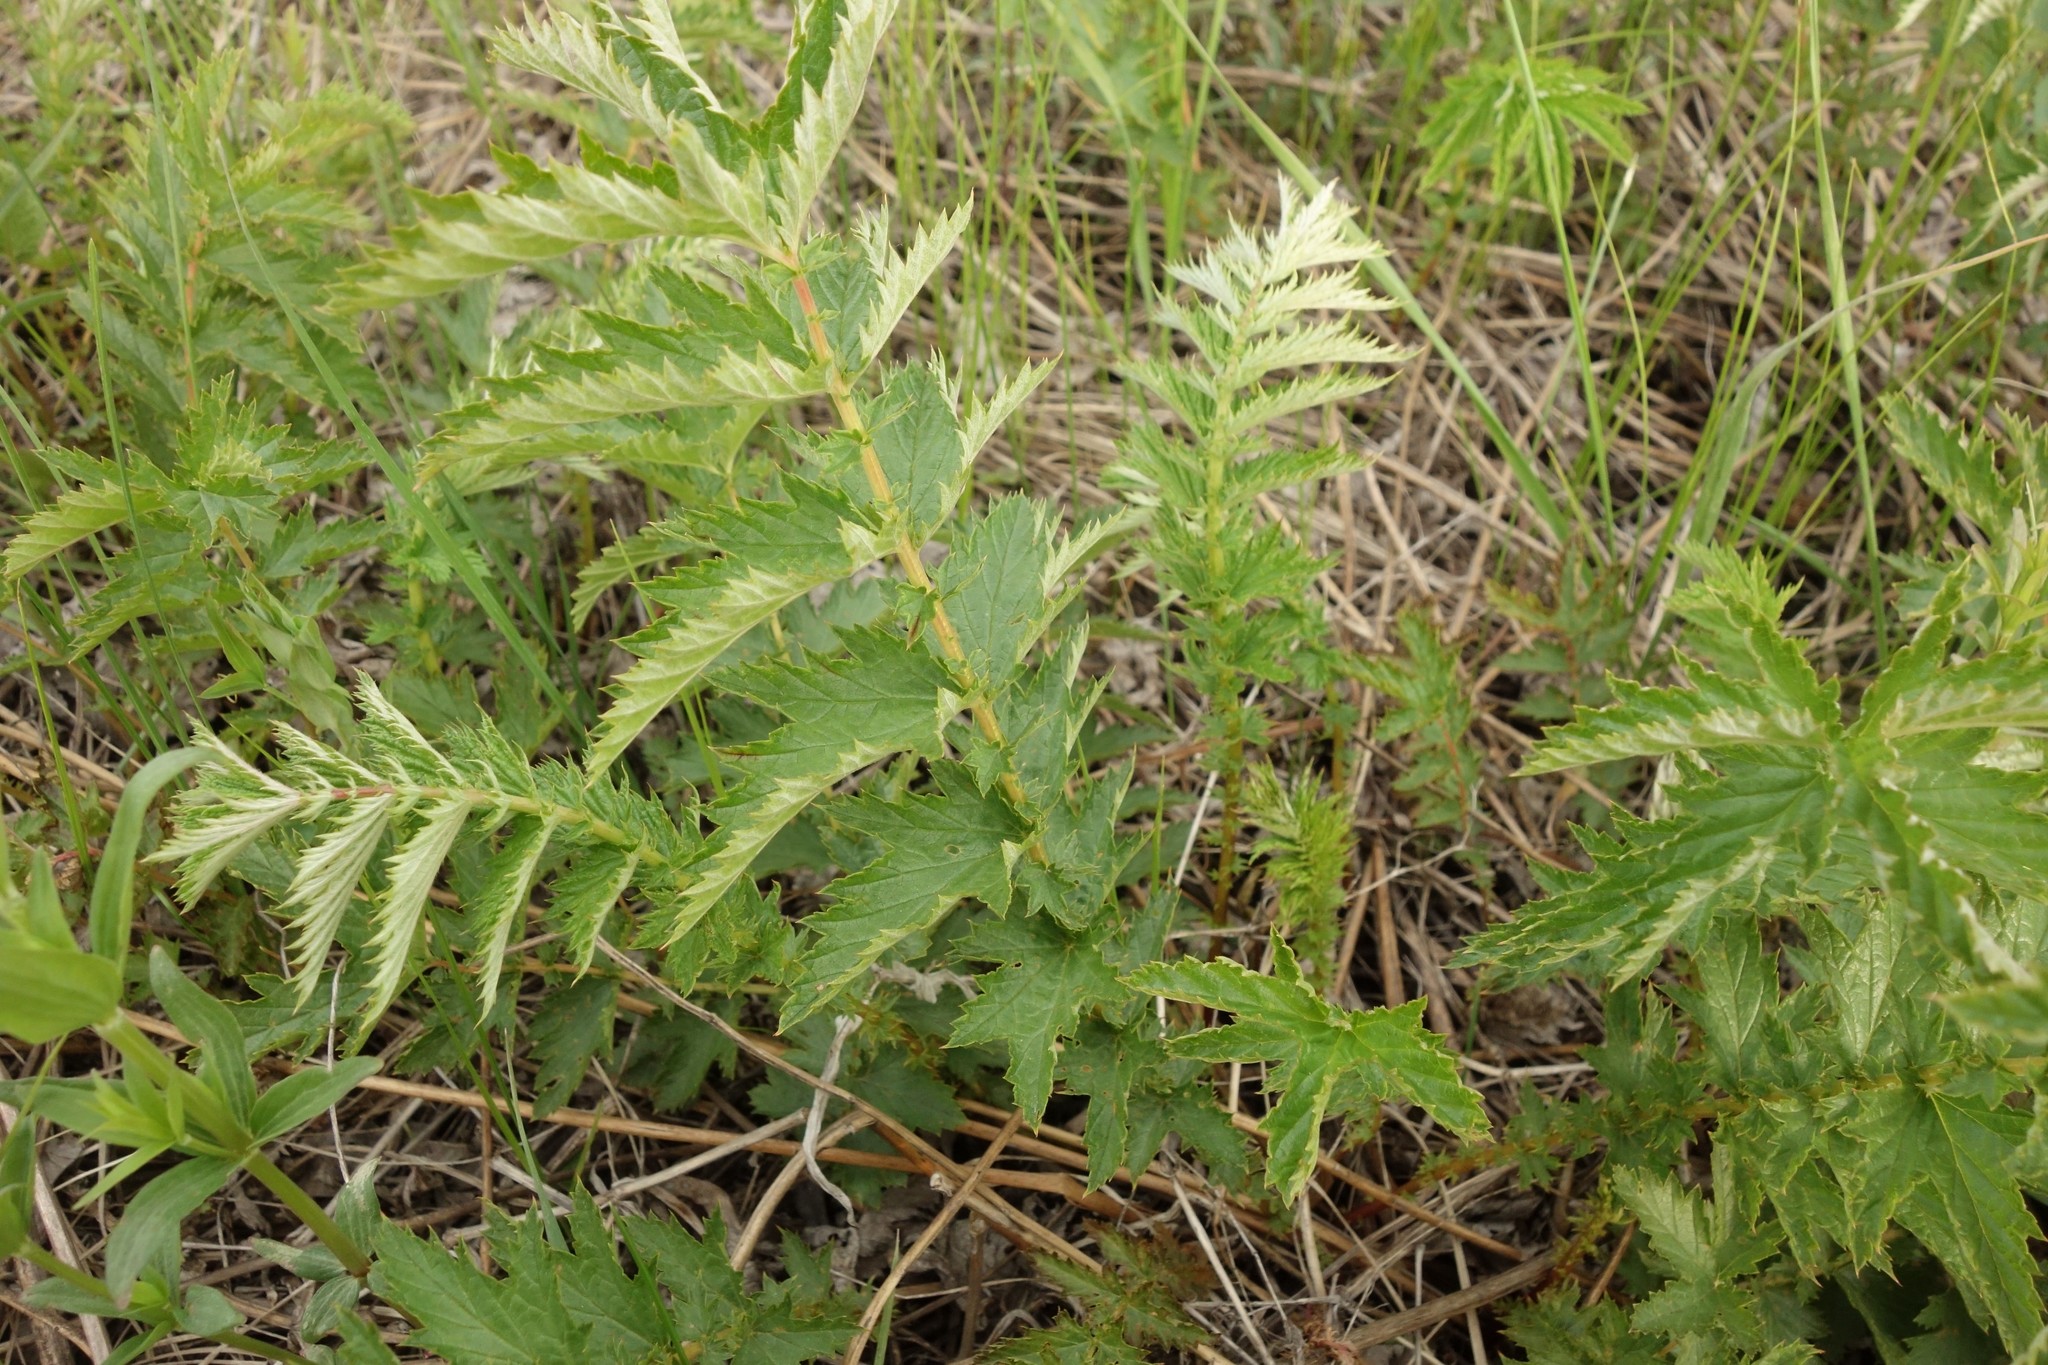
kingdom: Plantae
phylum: Tracheophyta
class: Magnoliopsida
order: Rosales
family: Rosaceae
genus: Filipendula
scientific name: Filipendula ulmaria
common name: Meadowsweet
